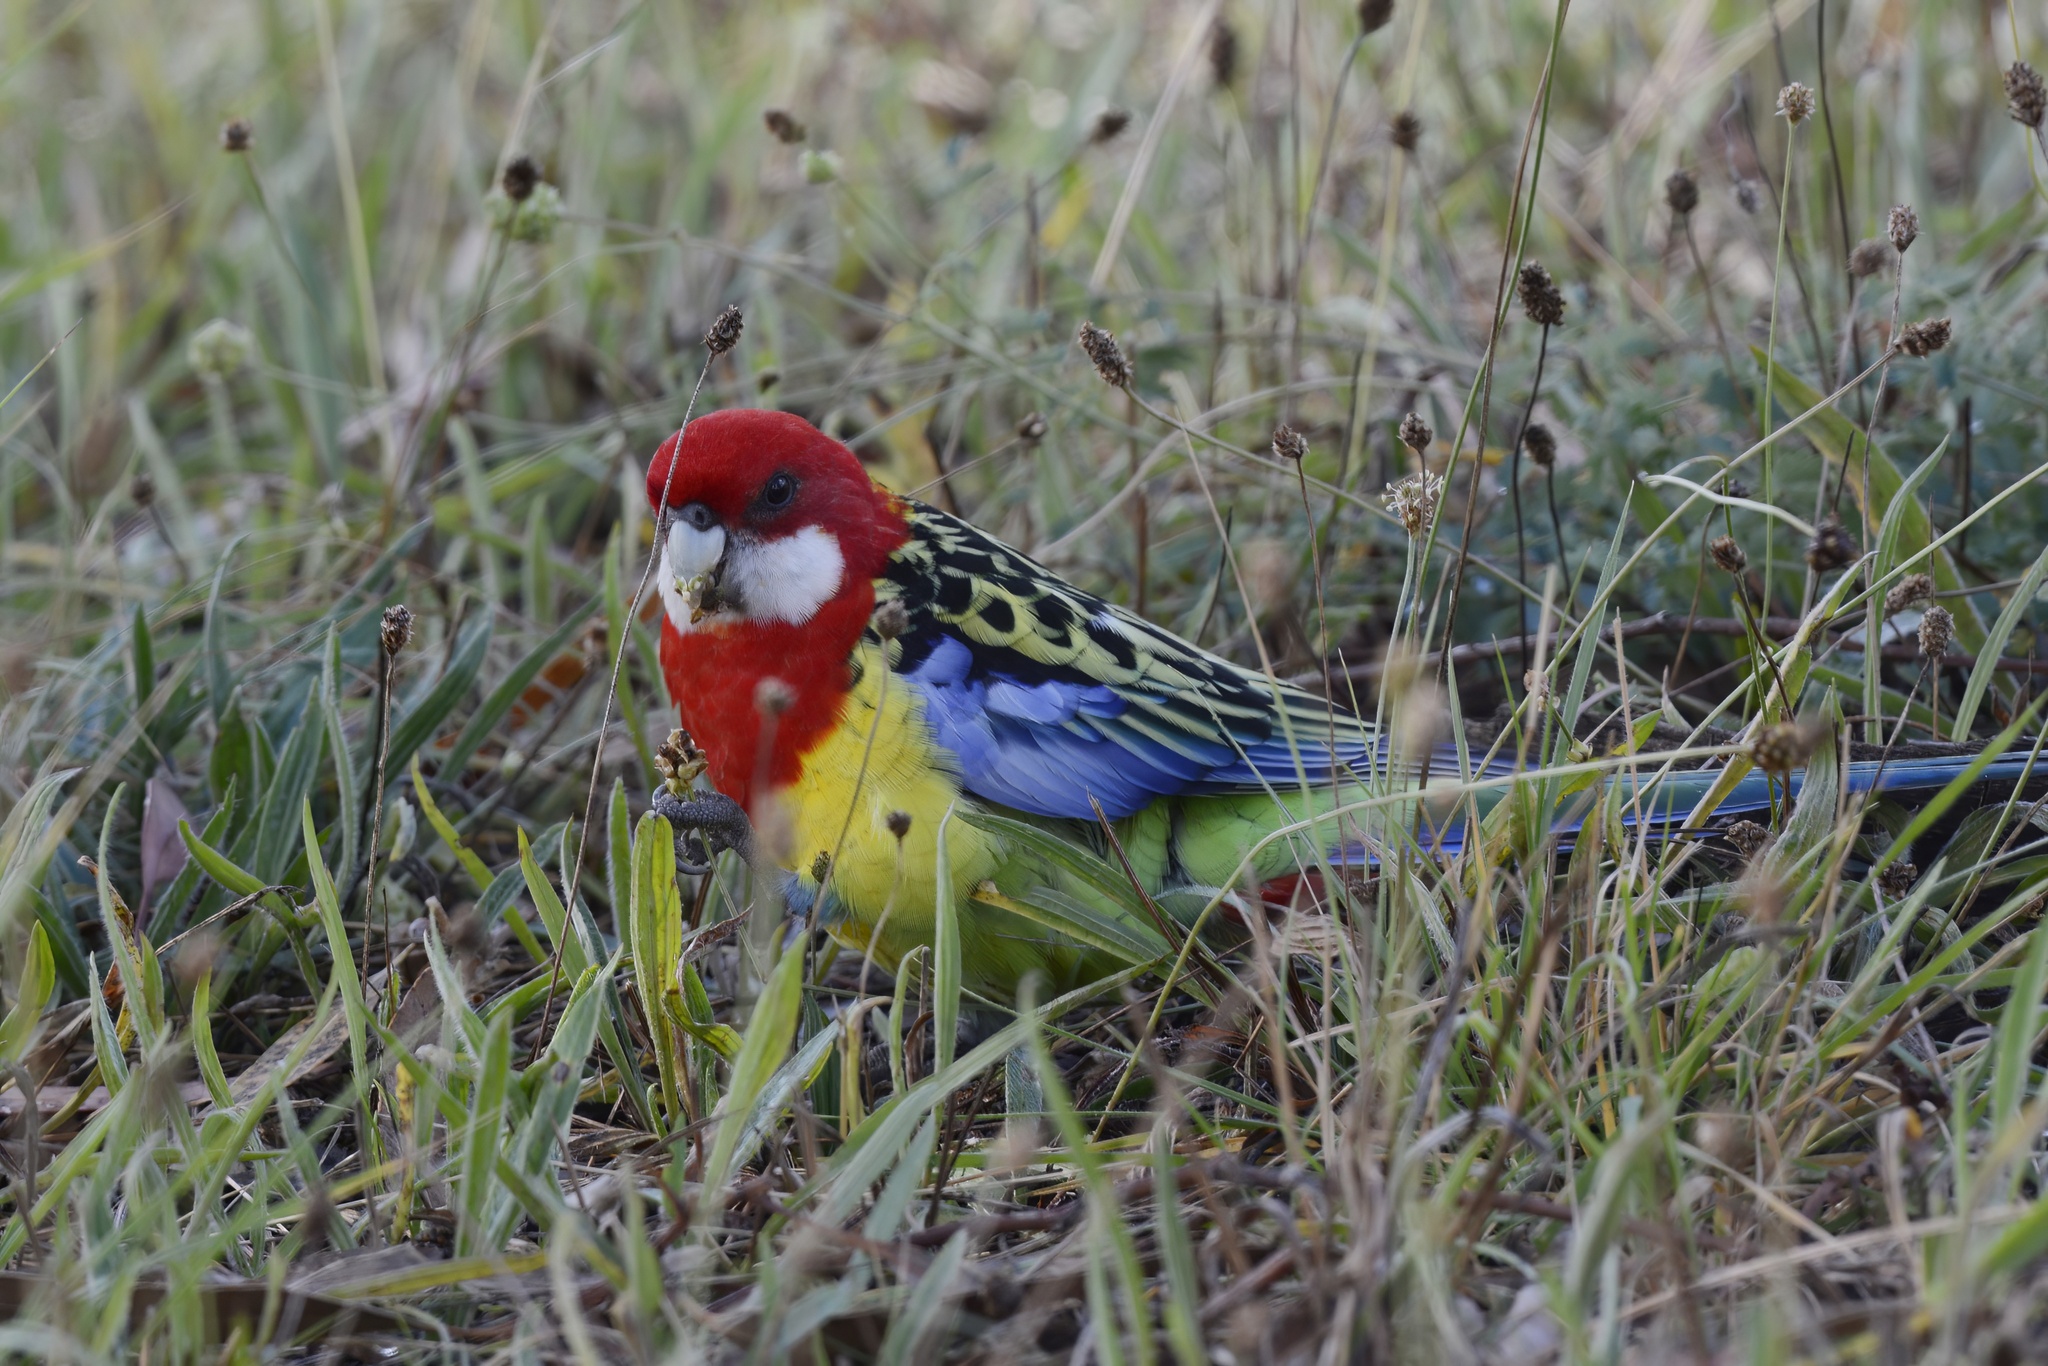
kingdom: Animalia
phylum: Chordata
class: Aves
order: Psittaciformes
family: Psittacidae
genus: Platycercus
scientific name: Platycercus eximius
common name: Eastern rosella
